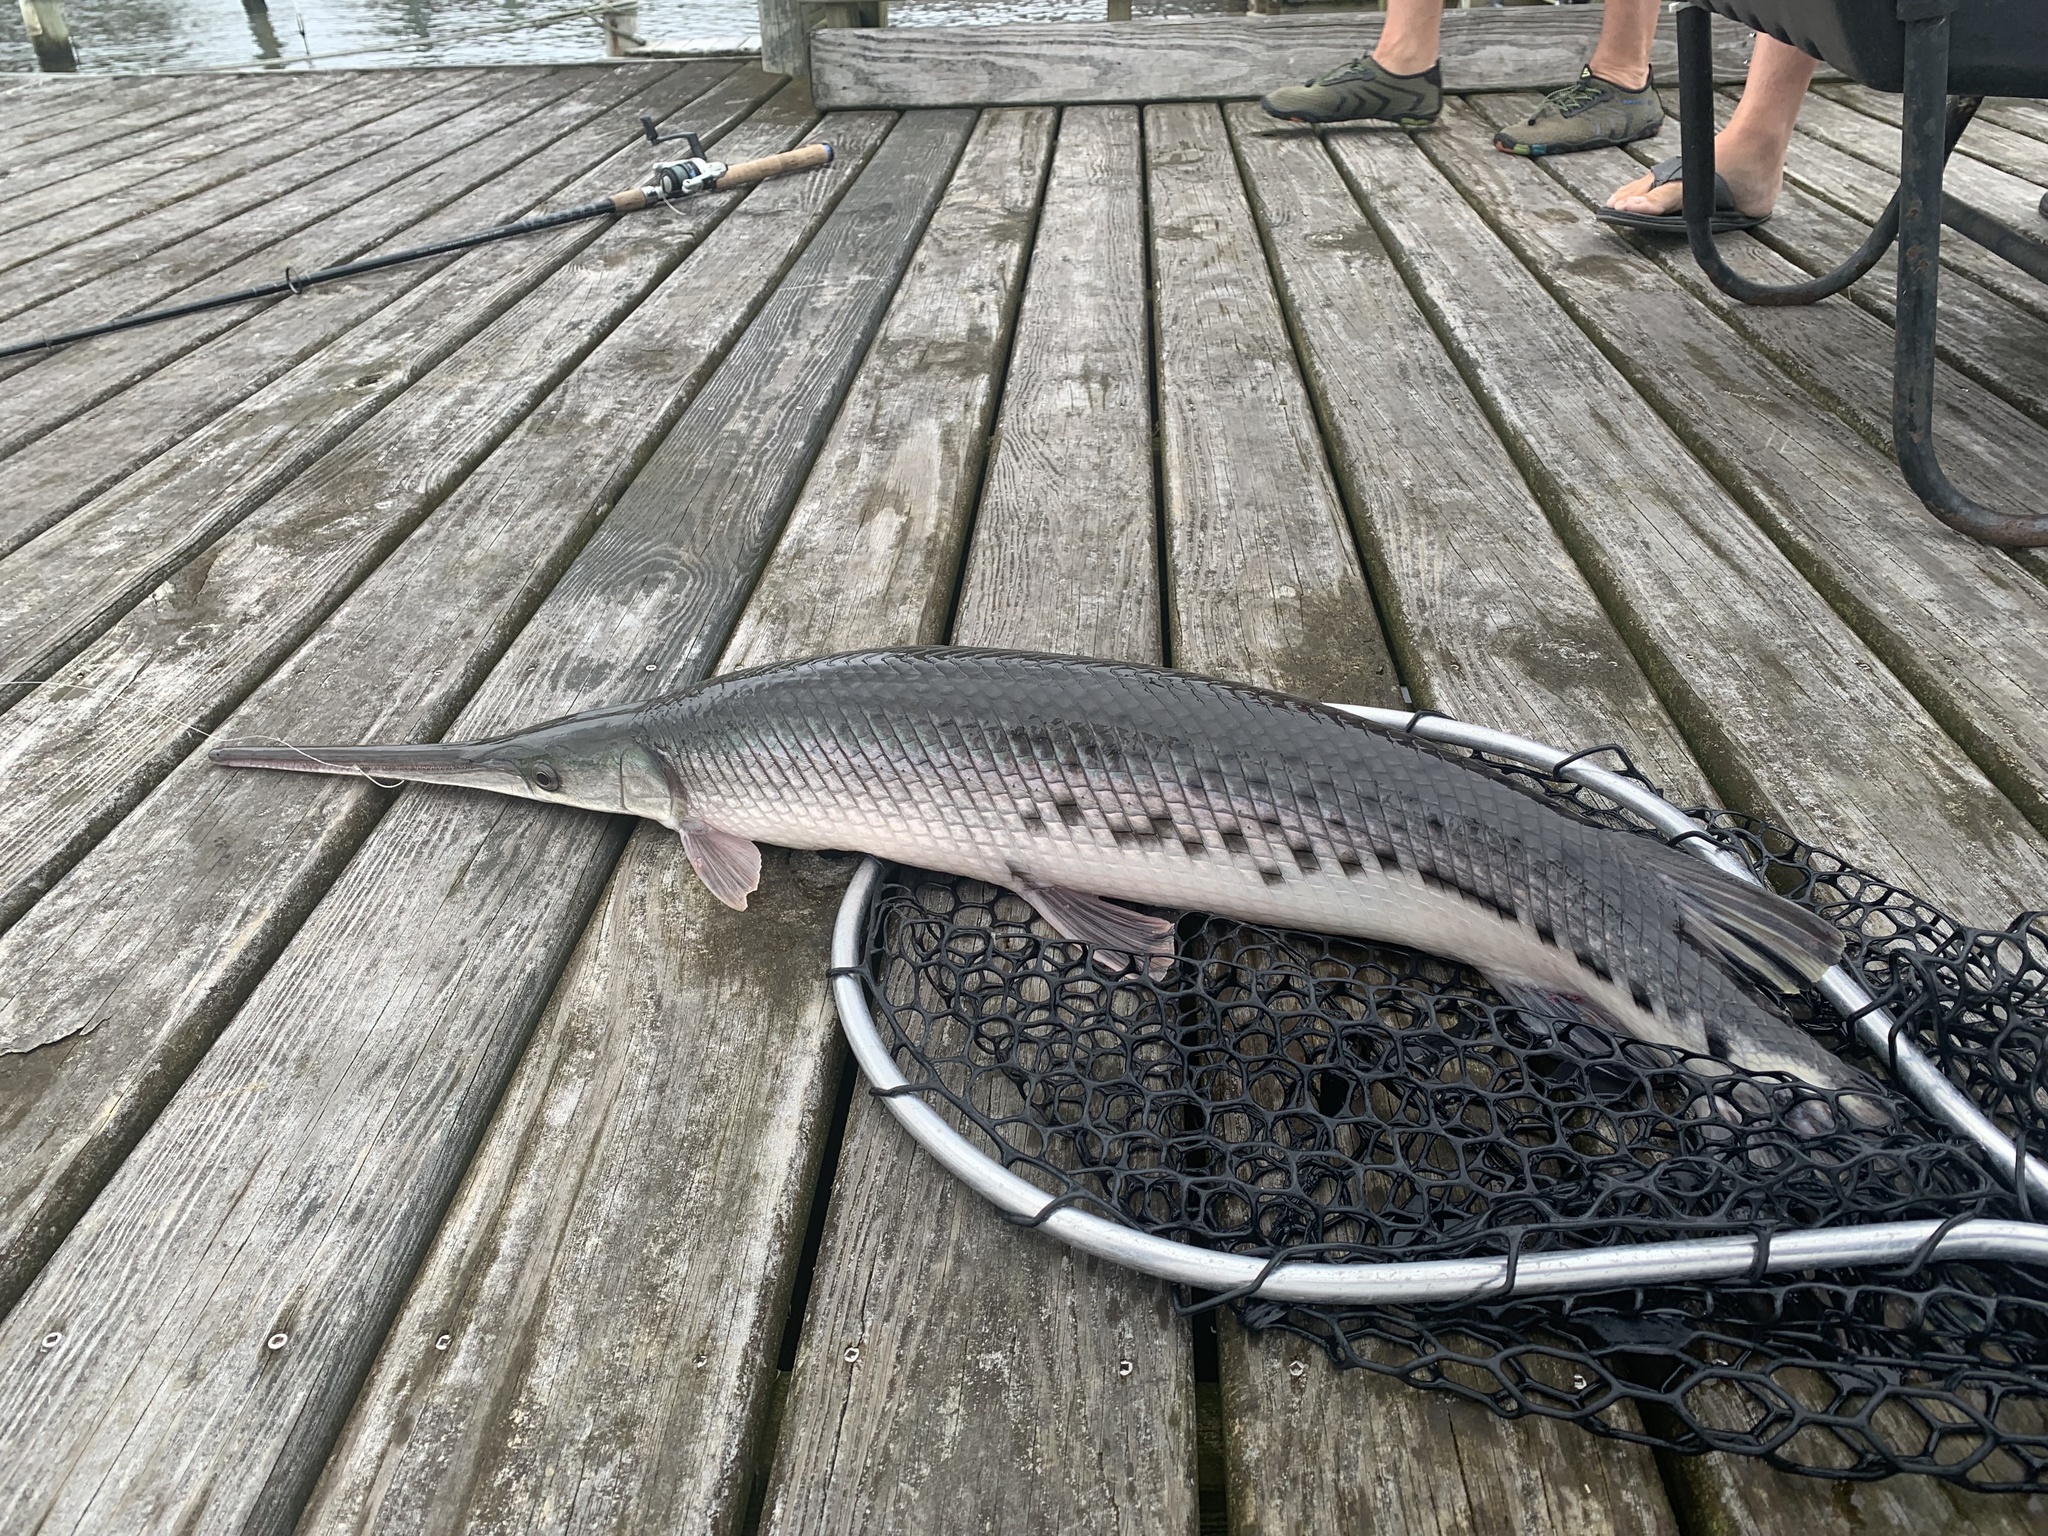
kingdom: Animalia
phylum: Chordata
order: Lepisosteiformes
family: Lepisosteidae
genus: Lepisosteus
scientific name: Lepisosteus osseus
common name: Longnose gar
